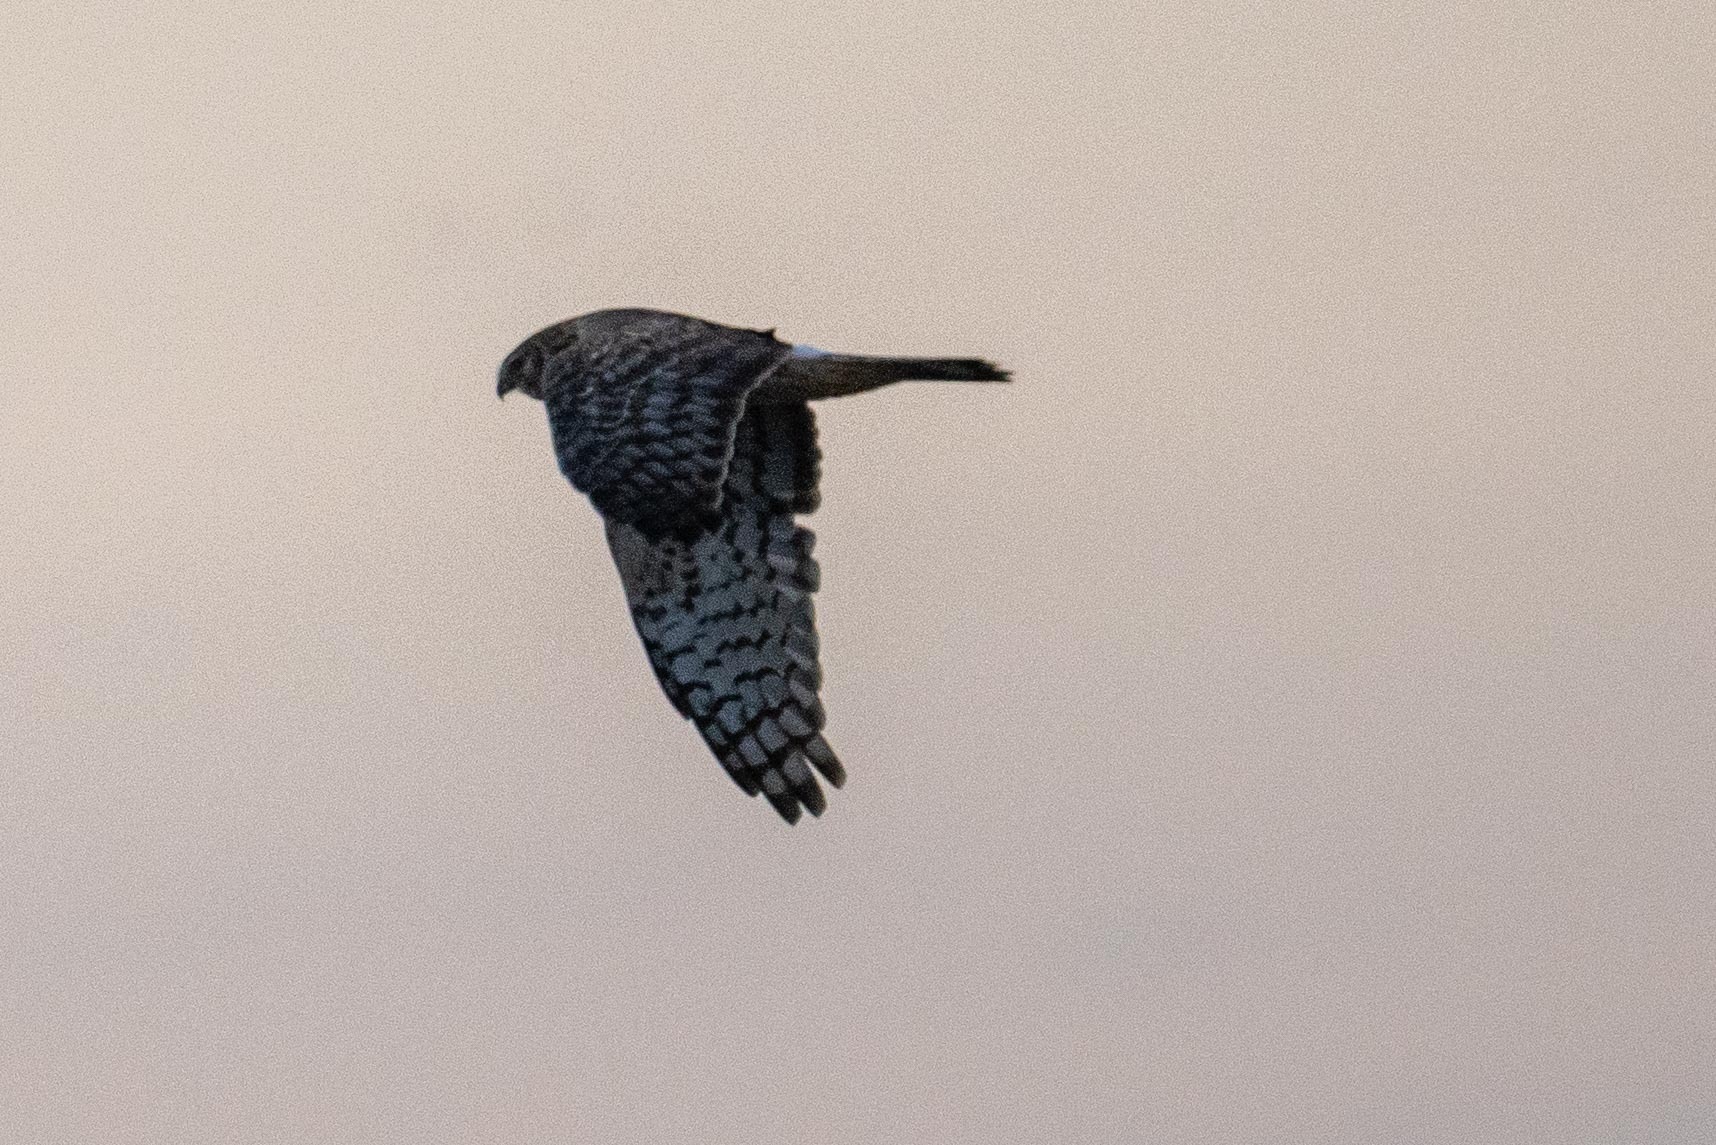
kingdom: Animalia
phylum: Chordata
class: Aves
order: Accipitriformes
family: Accipitridae
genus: Circus
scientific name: Circus cyaneus
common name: Hen harrier
